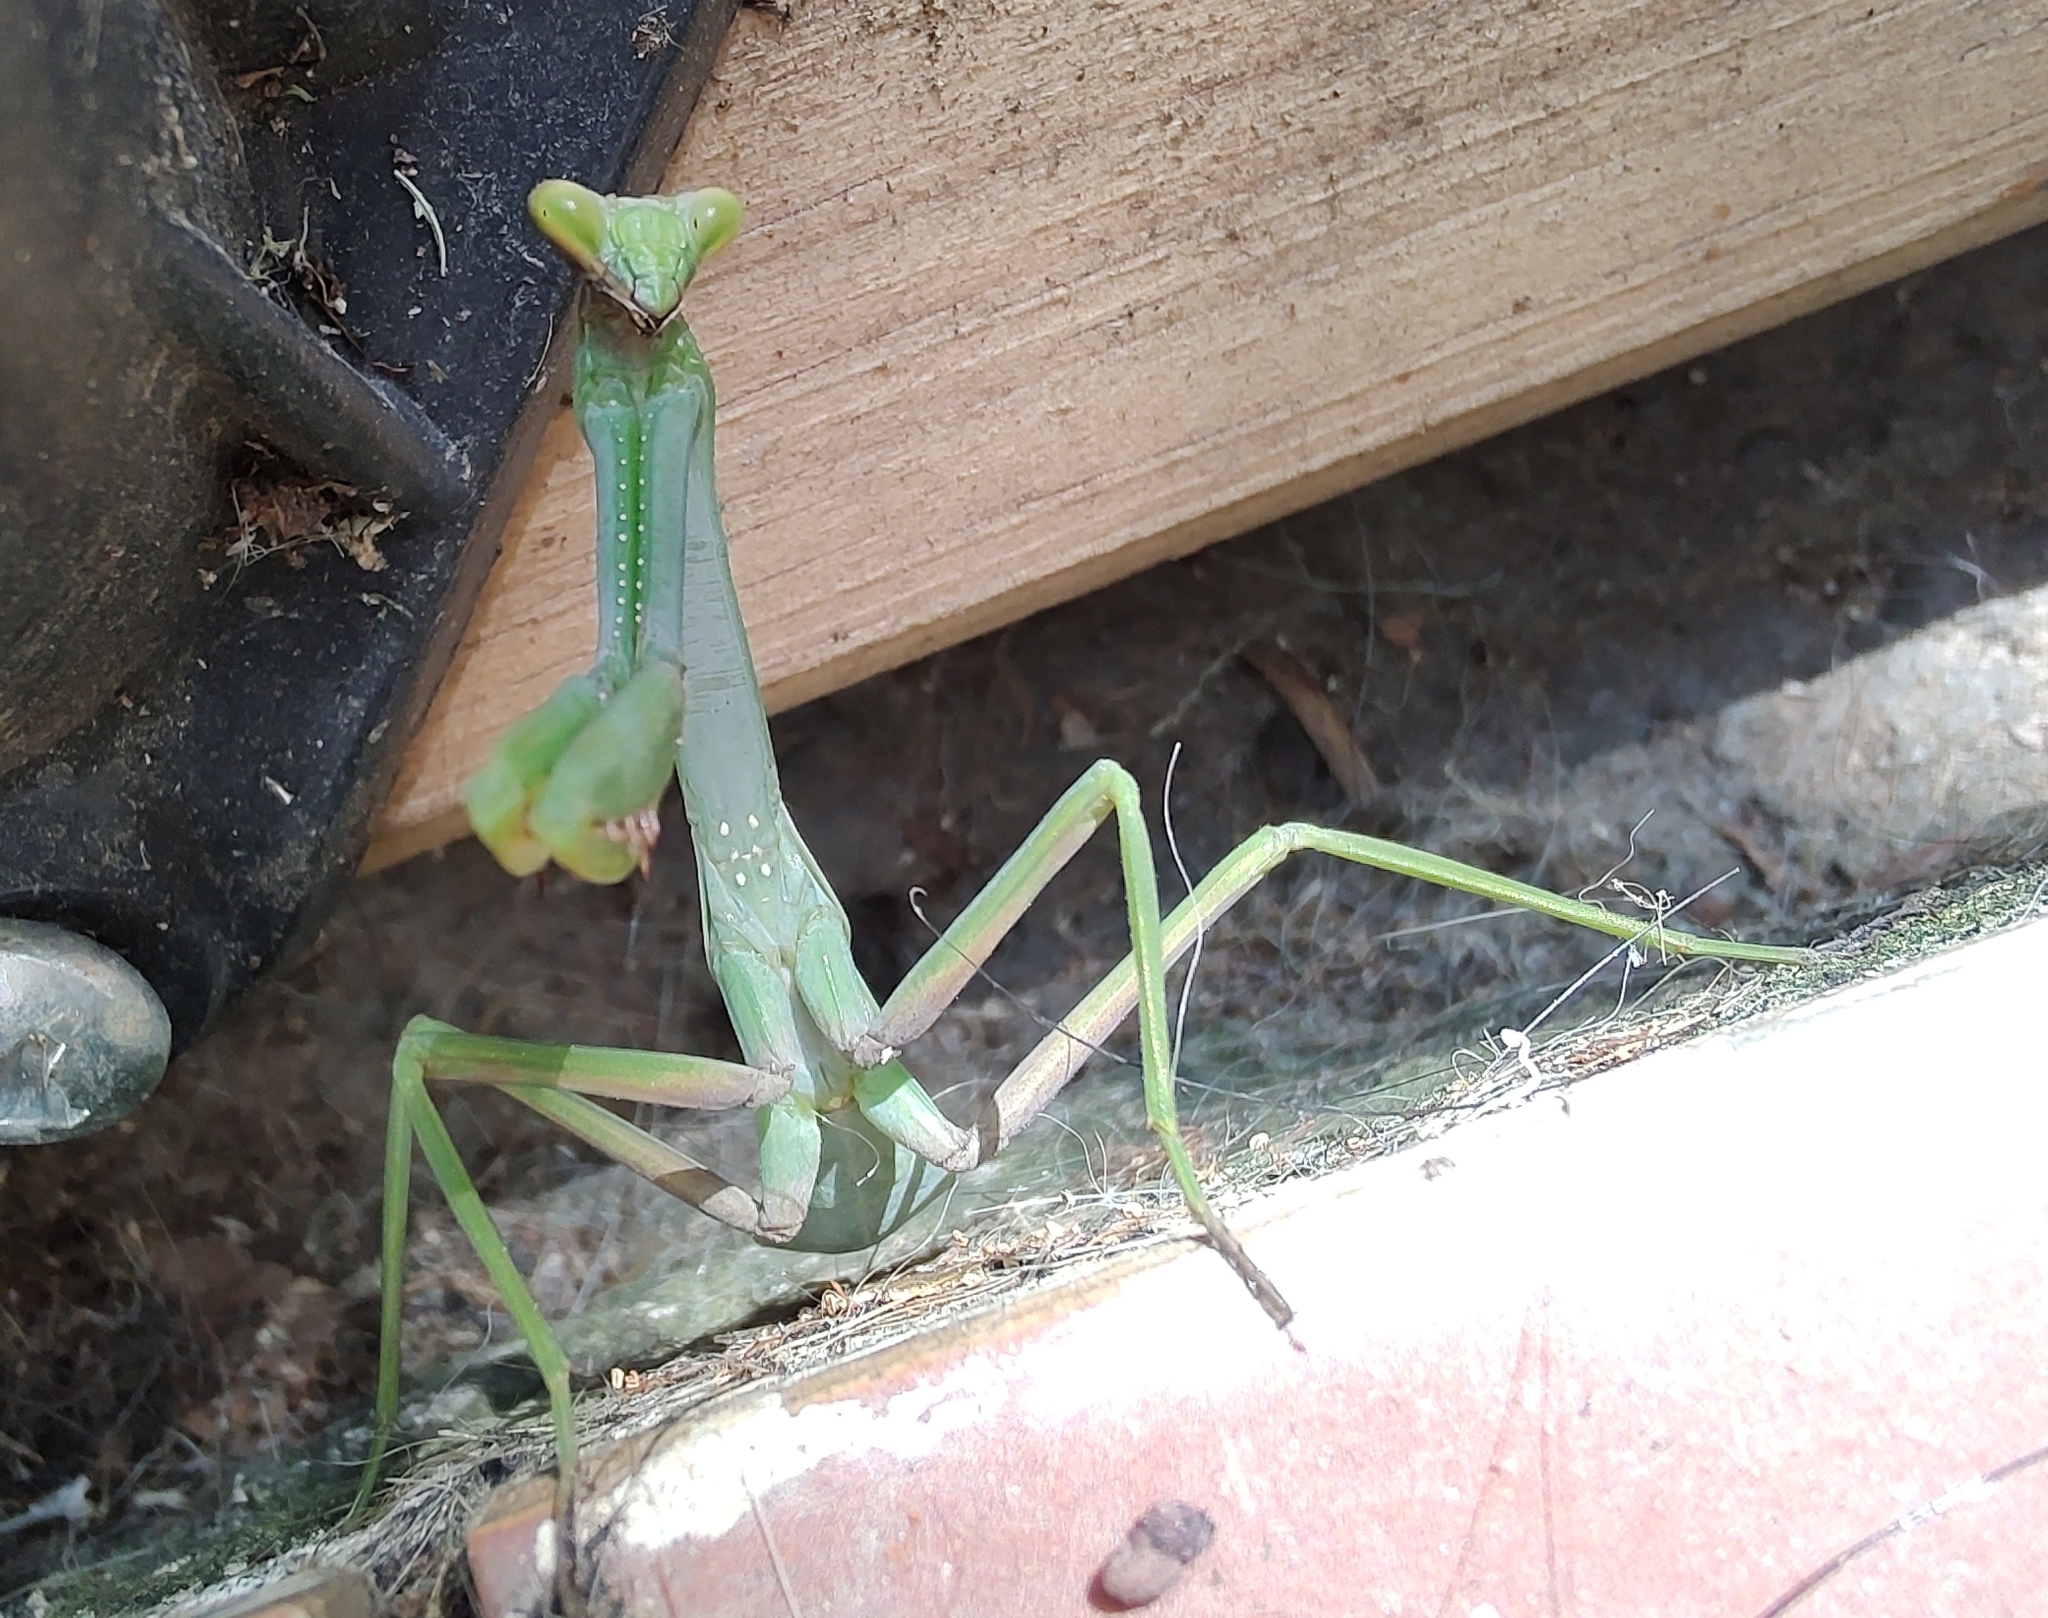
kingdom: Animalia
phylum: Arthropoda
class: Insecta
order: Mantodea
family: Mantidae
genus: Stagmatoptera
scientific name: Stagmatoptera praecaria
